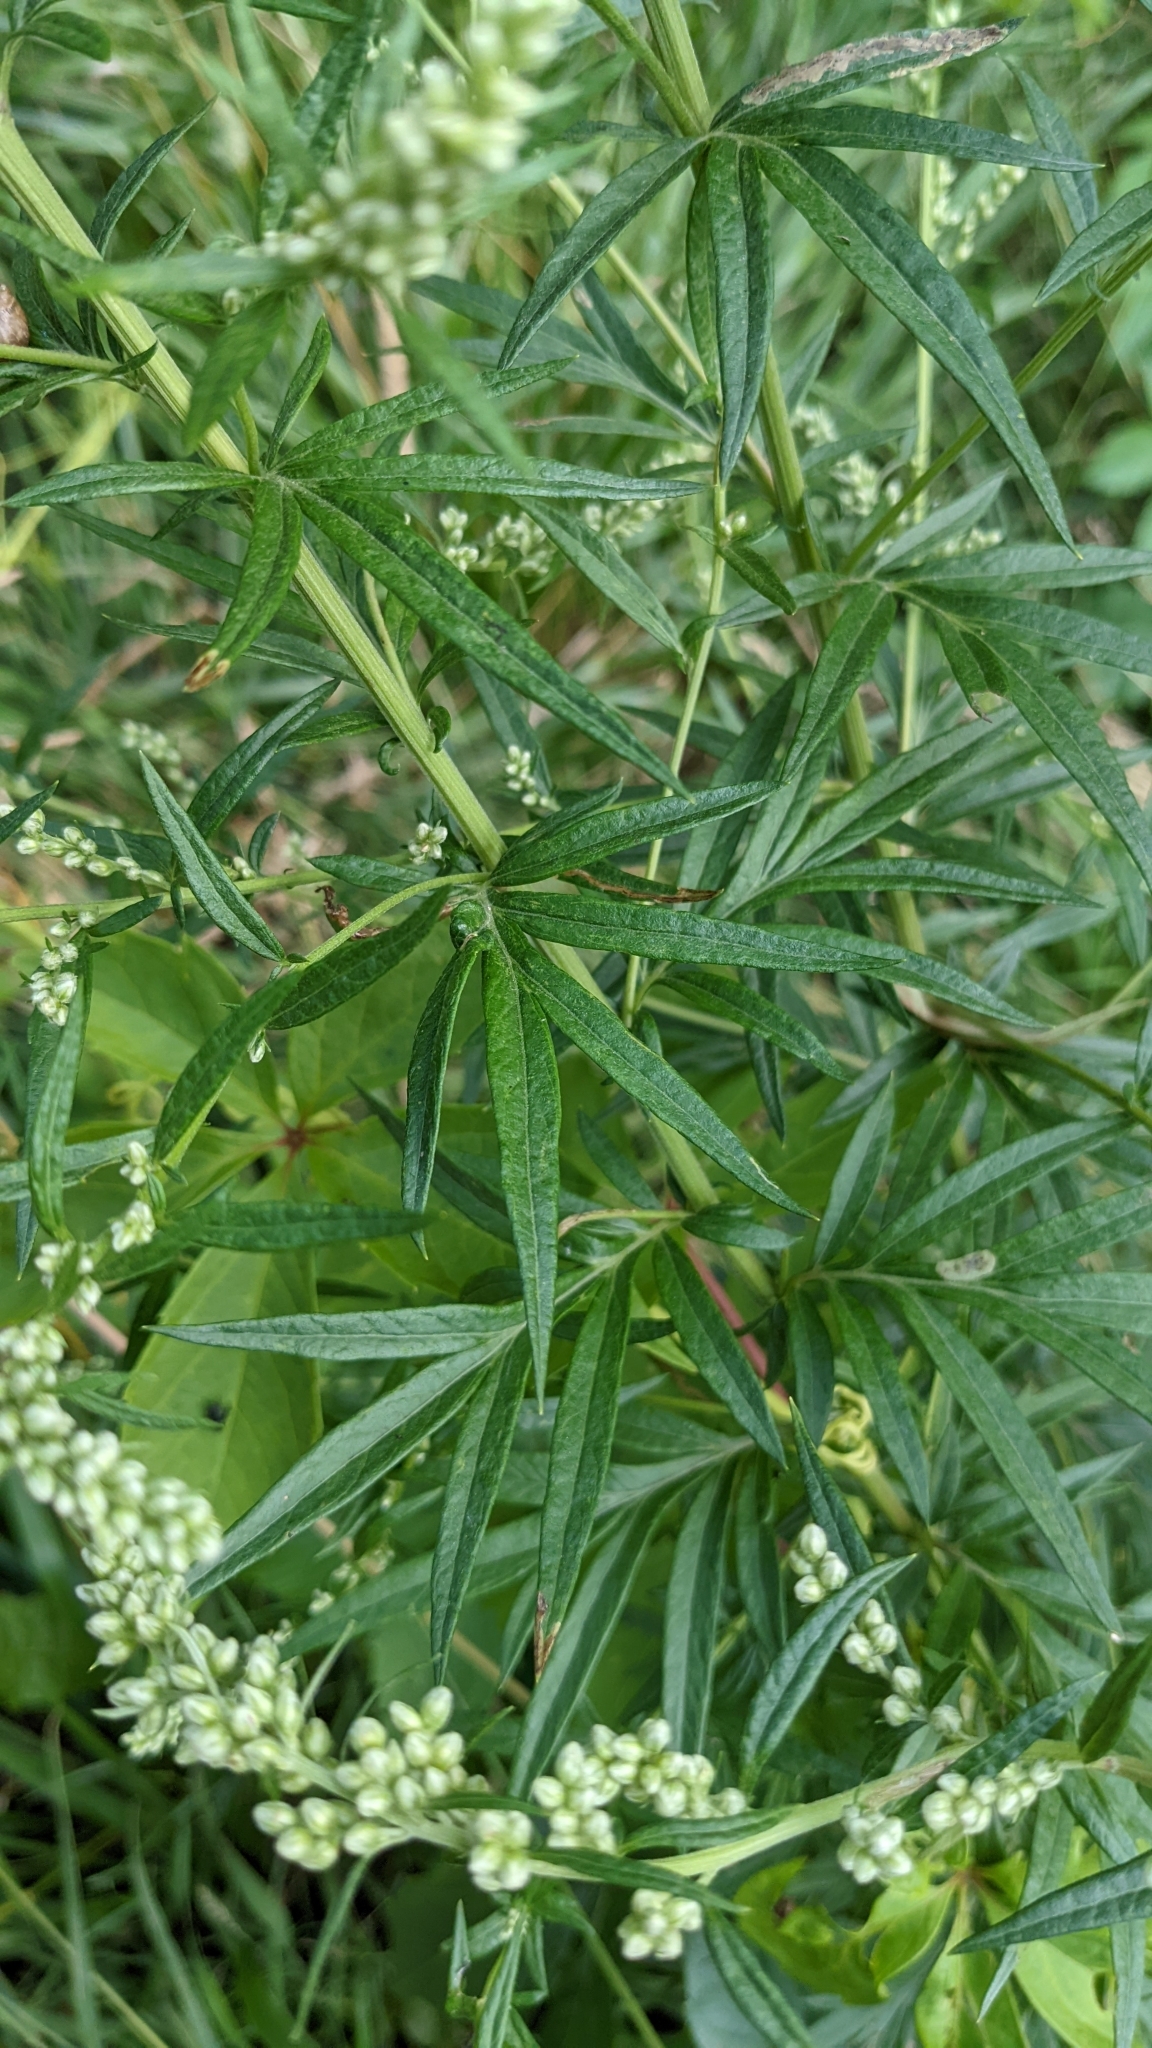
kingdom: Plantae
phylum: Tracheophyta
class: Magnoliopsida
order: Asterales
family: Asteraceae
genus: Artemisia
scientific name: Artemisia vulgaris
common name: Mugwort
